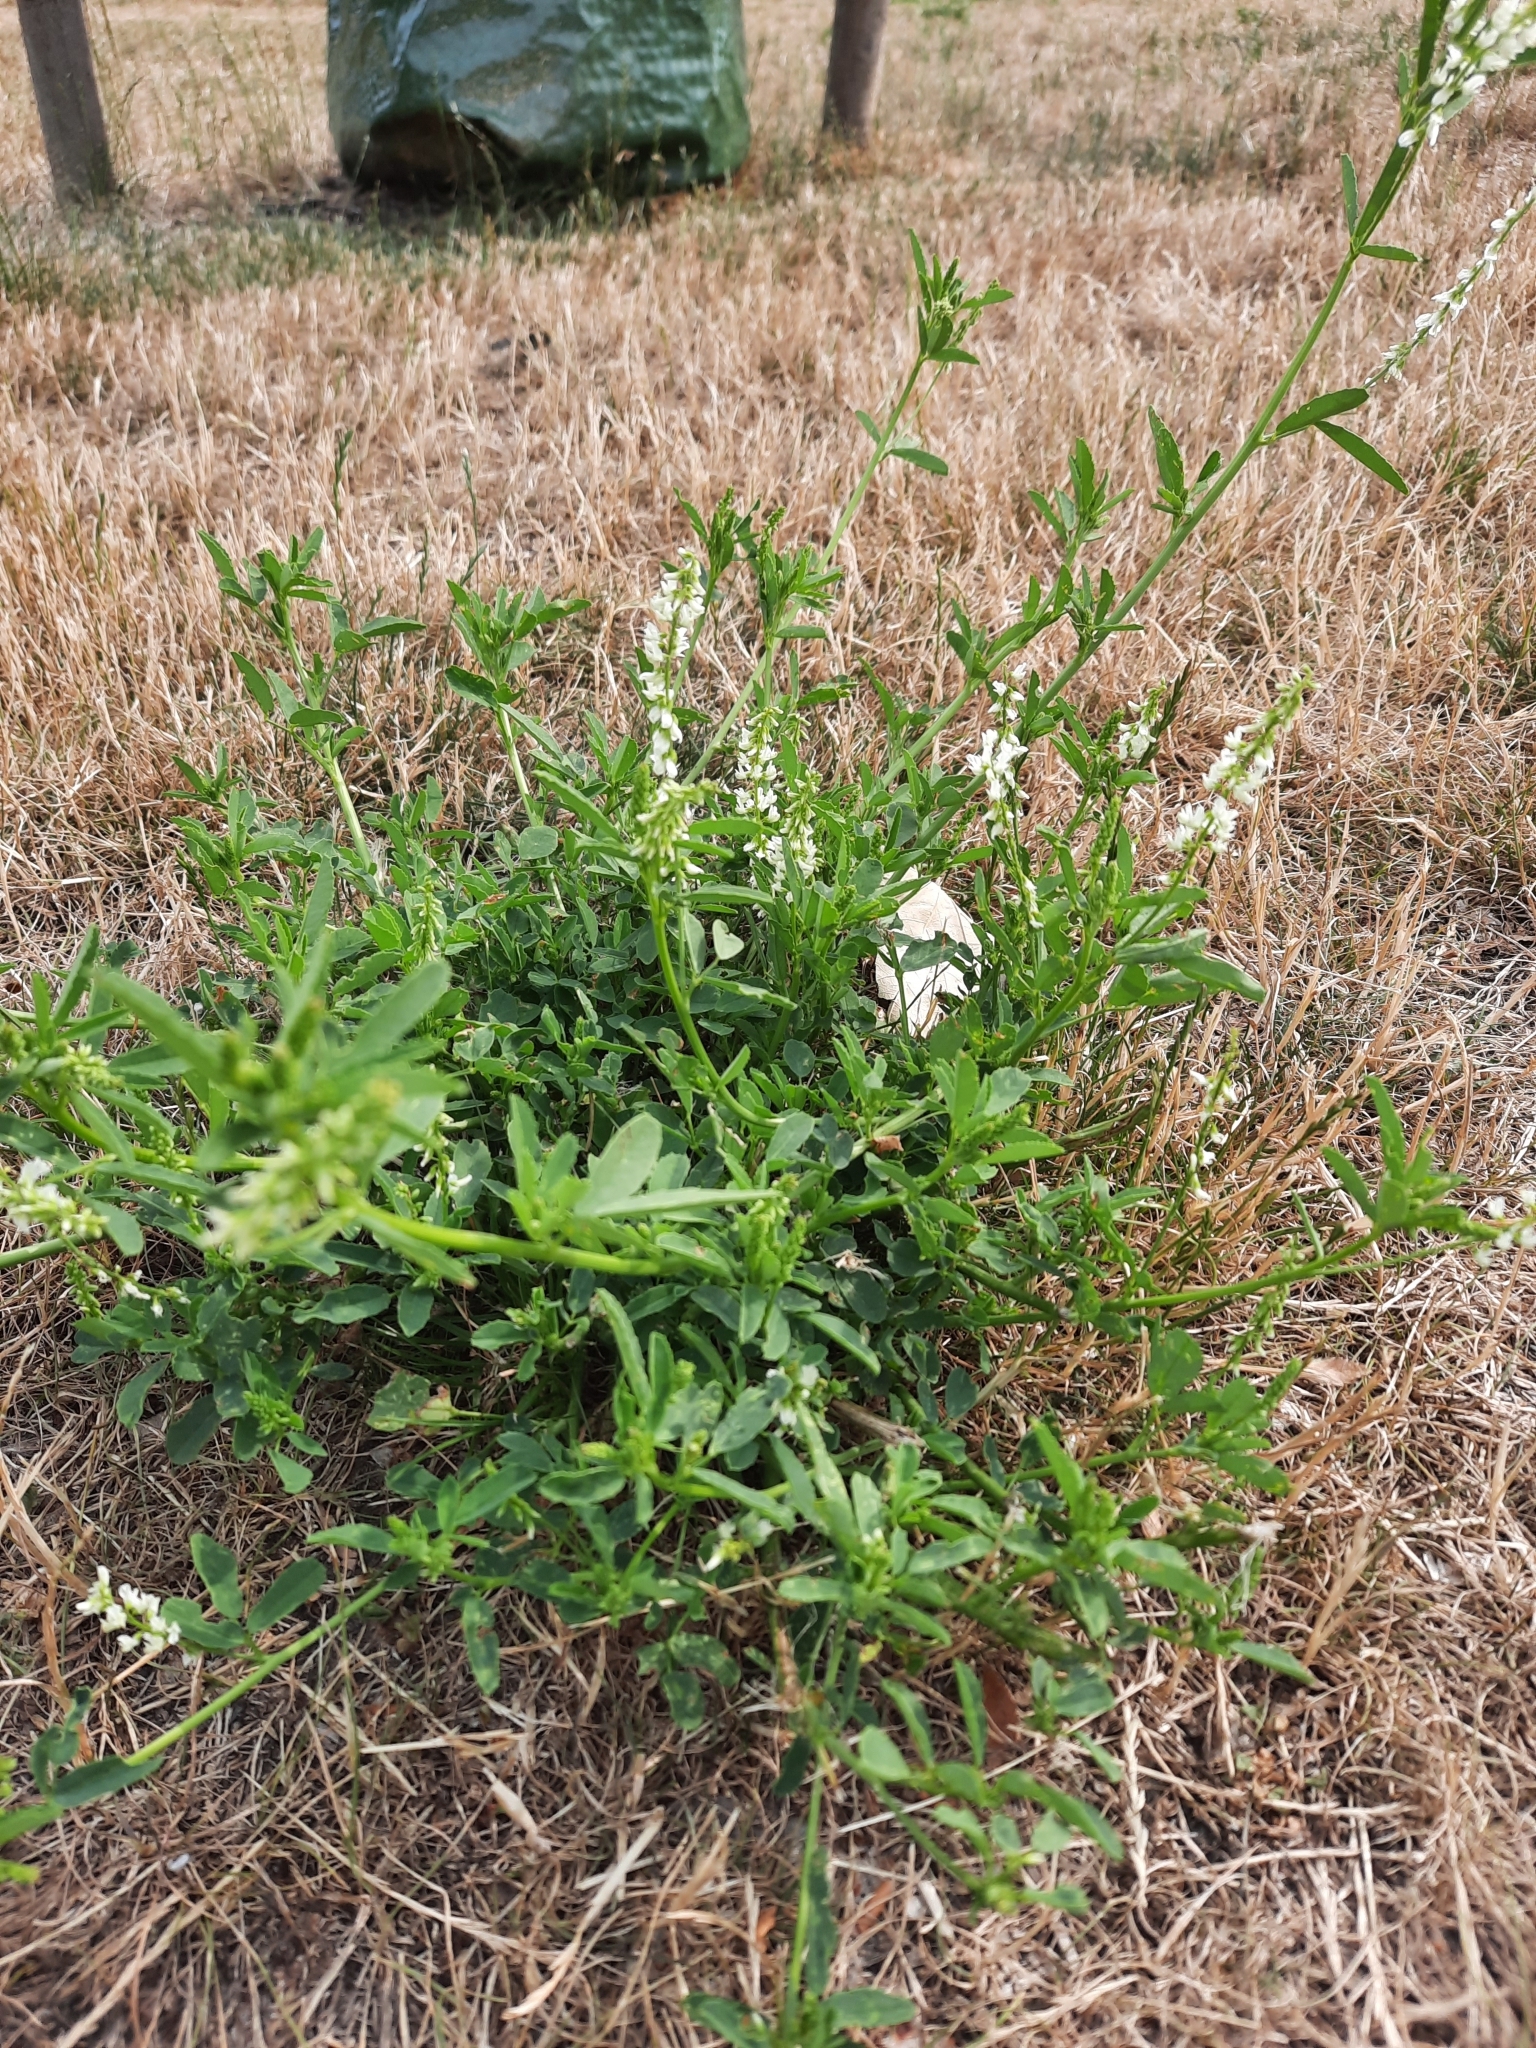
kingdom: Plantae
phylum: Tracheophyta
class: Magnoliopsida
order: Fabales
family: Fabaceae
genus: Melilotus
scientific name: Melilotus albus
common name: White melilot
